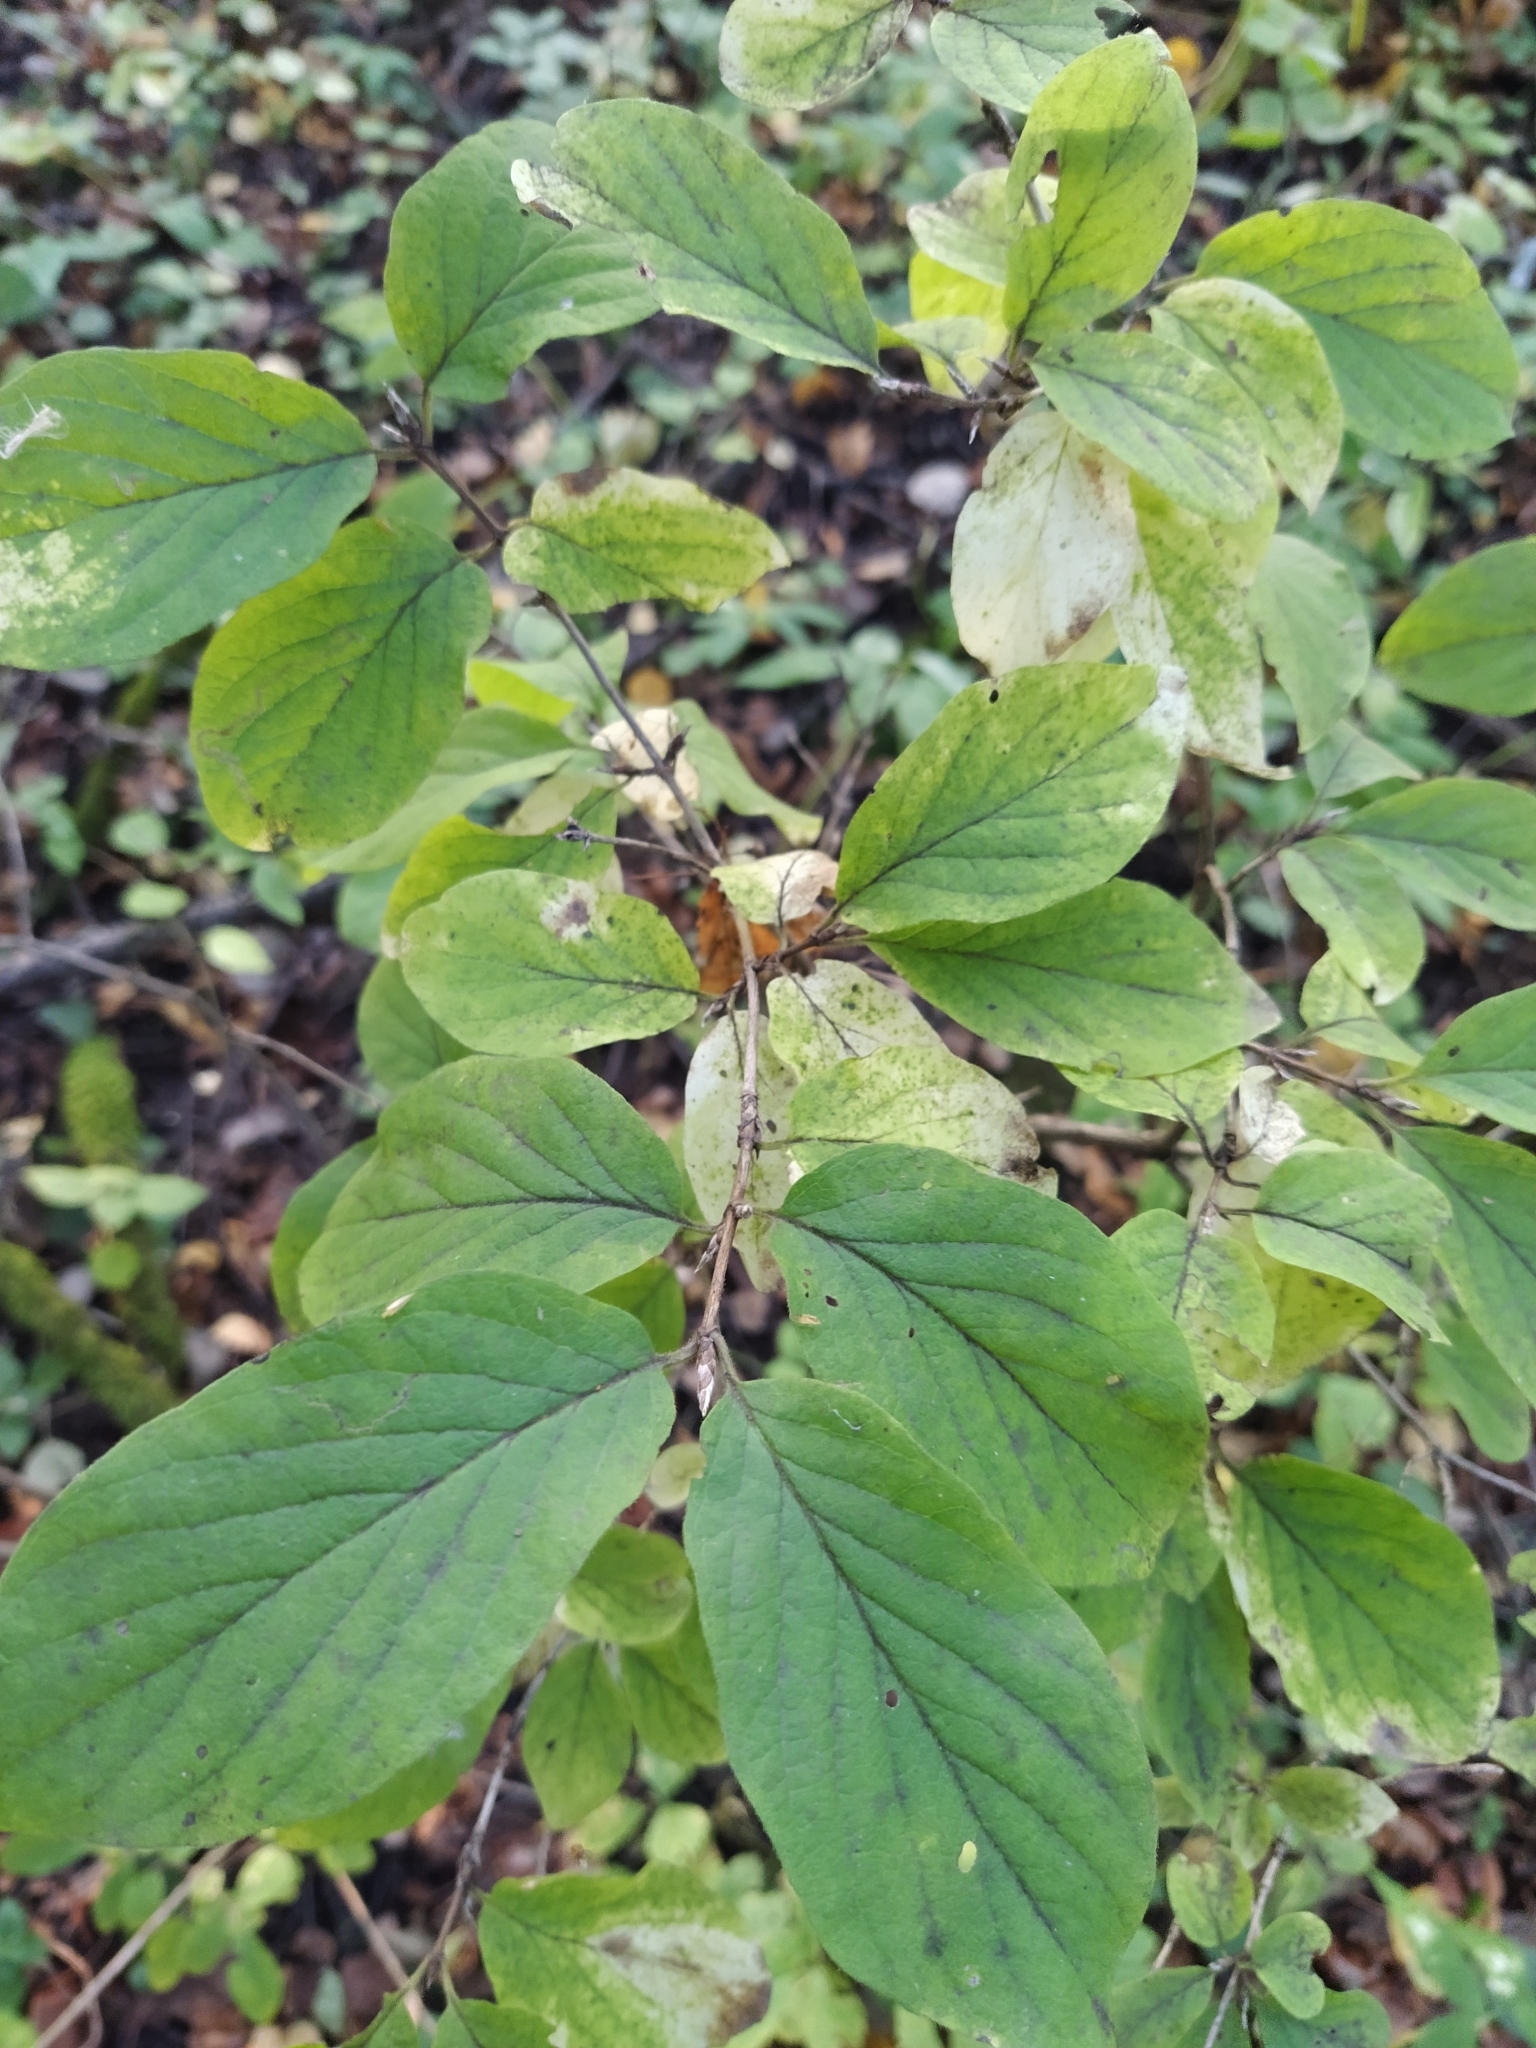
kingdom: Plantae
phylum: Tracheophyta
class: Magnoliopsida
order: Dipsacales
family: Caprifoliaceae
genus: Lonicera
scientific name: Lonicera xylosteum
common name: Fly honeysuckle
